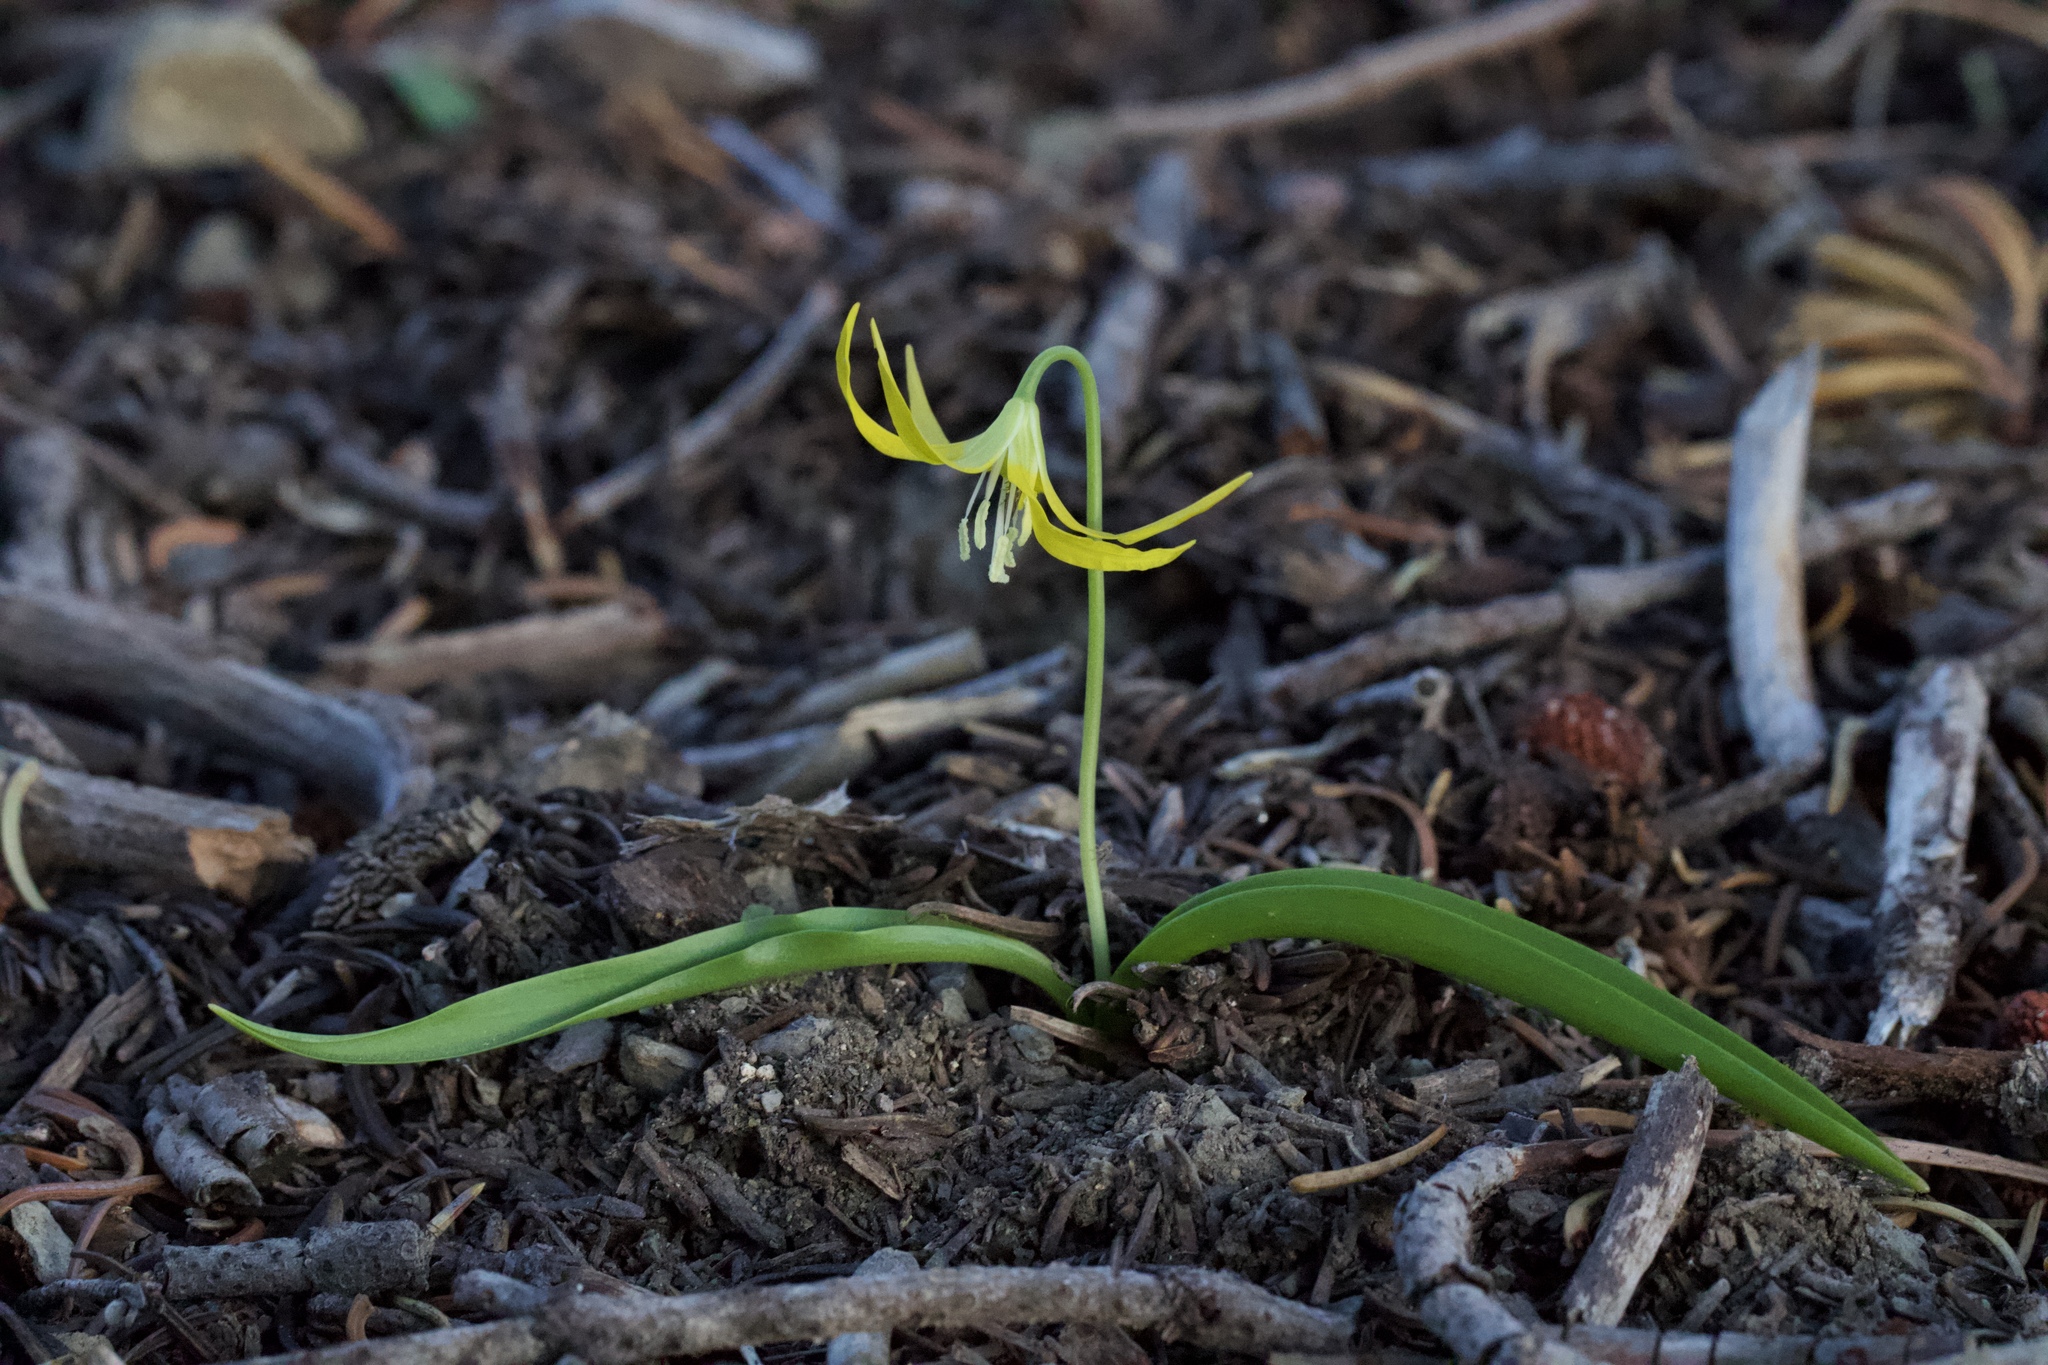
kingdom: Plantae
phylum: Tracheophyta
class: Liliopsida
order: Liliales
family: Liliaceae
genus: Erythronium
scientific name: Erythronium grandiflorum
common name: Avalanche-lily
